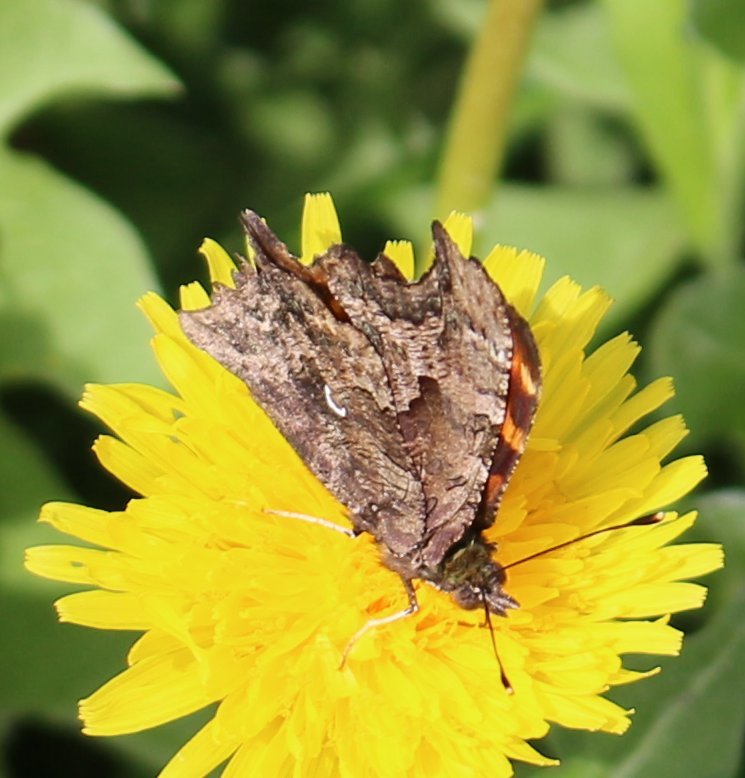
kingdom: Animalia
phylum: Arthropoda
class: Insecta
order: Lepidoptera
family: Nymphalidae
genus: Polygonia
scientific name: Polygonia c-album
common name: Comma
